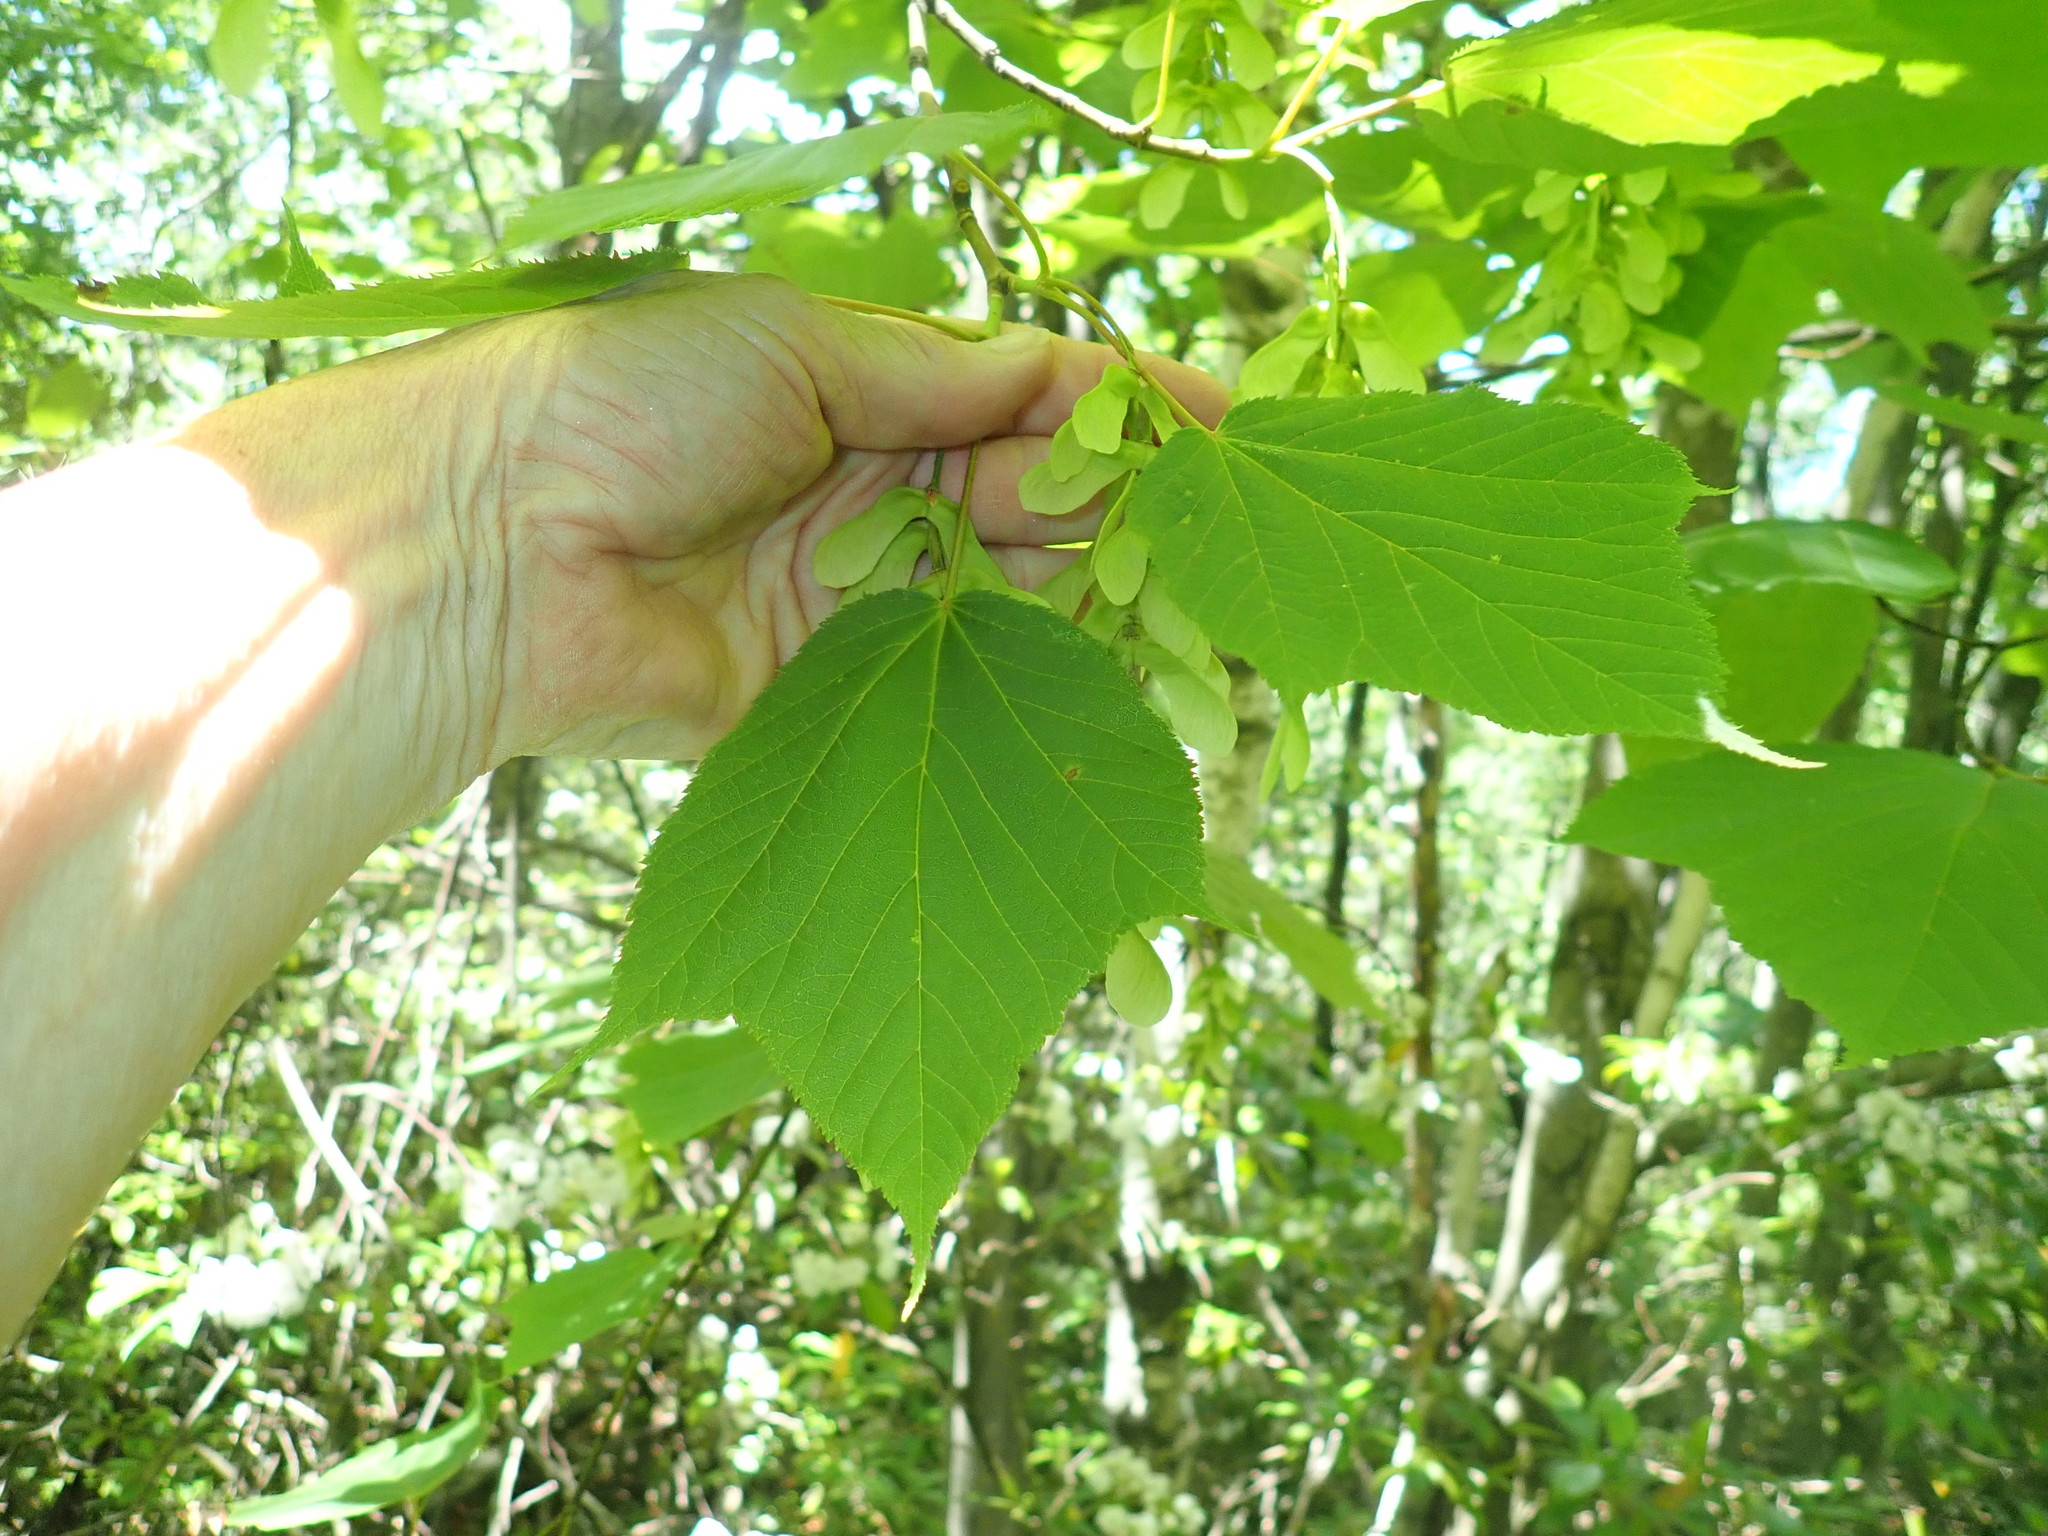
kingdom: Plantae
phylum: Tracheophyta
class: Magnoliopsida
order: Sapindales
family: Sapindaceae
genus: Acer
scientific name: Acer pensylvanicum
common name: Moosewood
